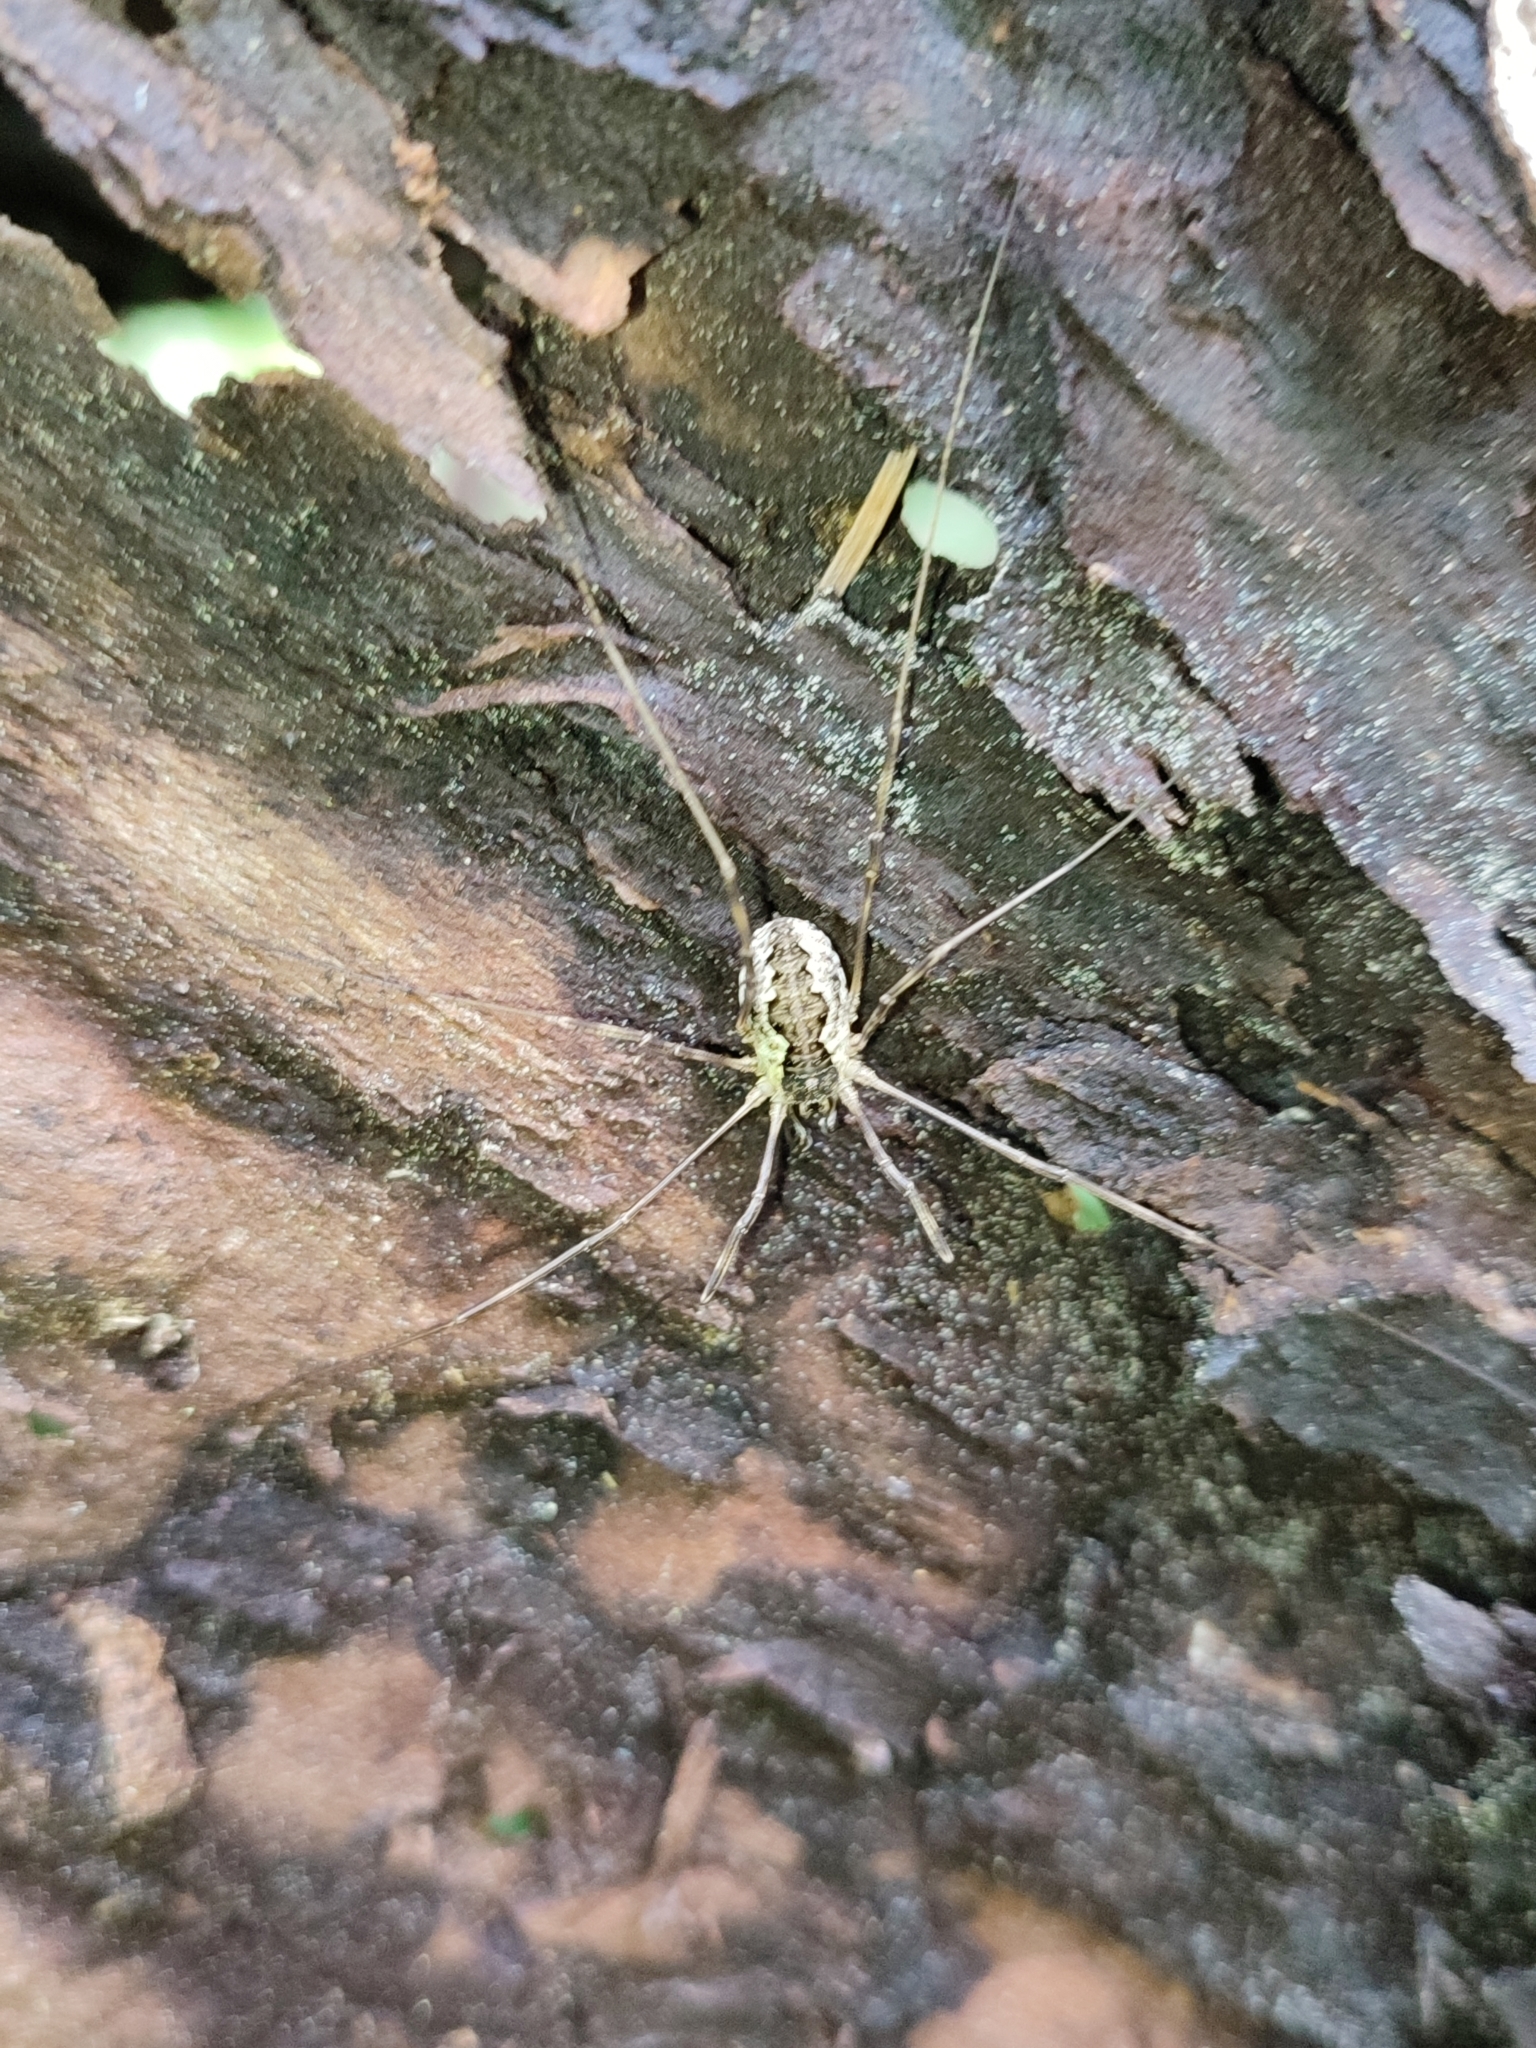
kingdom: Animalia
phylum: Arthropoda
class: Arachnida
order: Opiliones
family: Phalangiidae
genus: Mitopus
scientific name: Mitopus morio
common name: Saddleback harvestman
